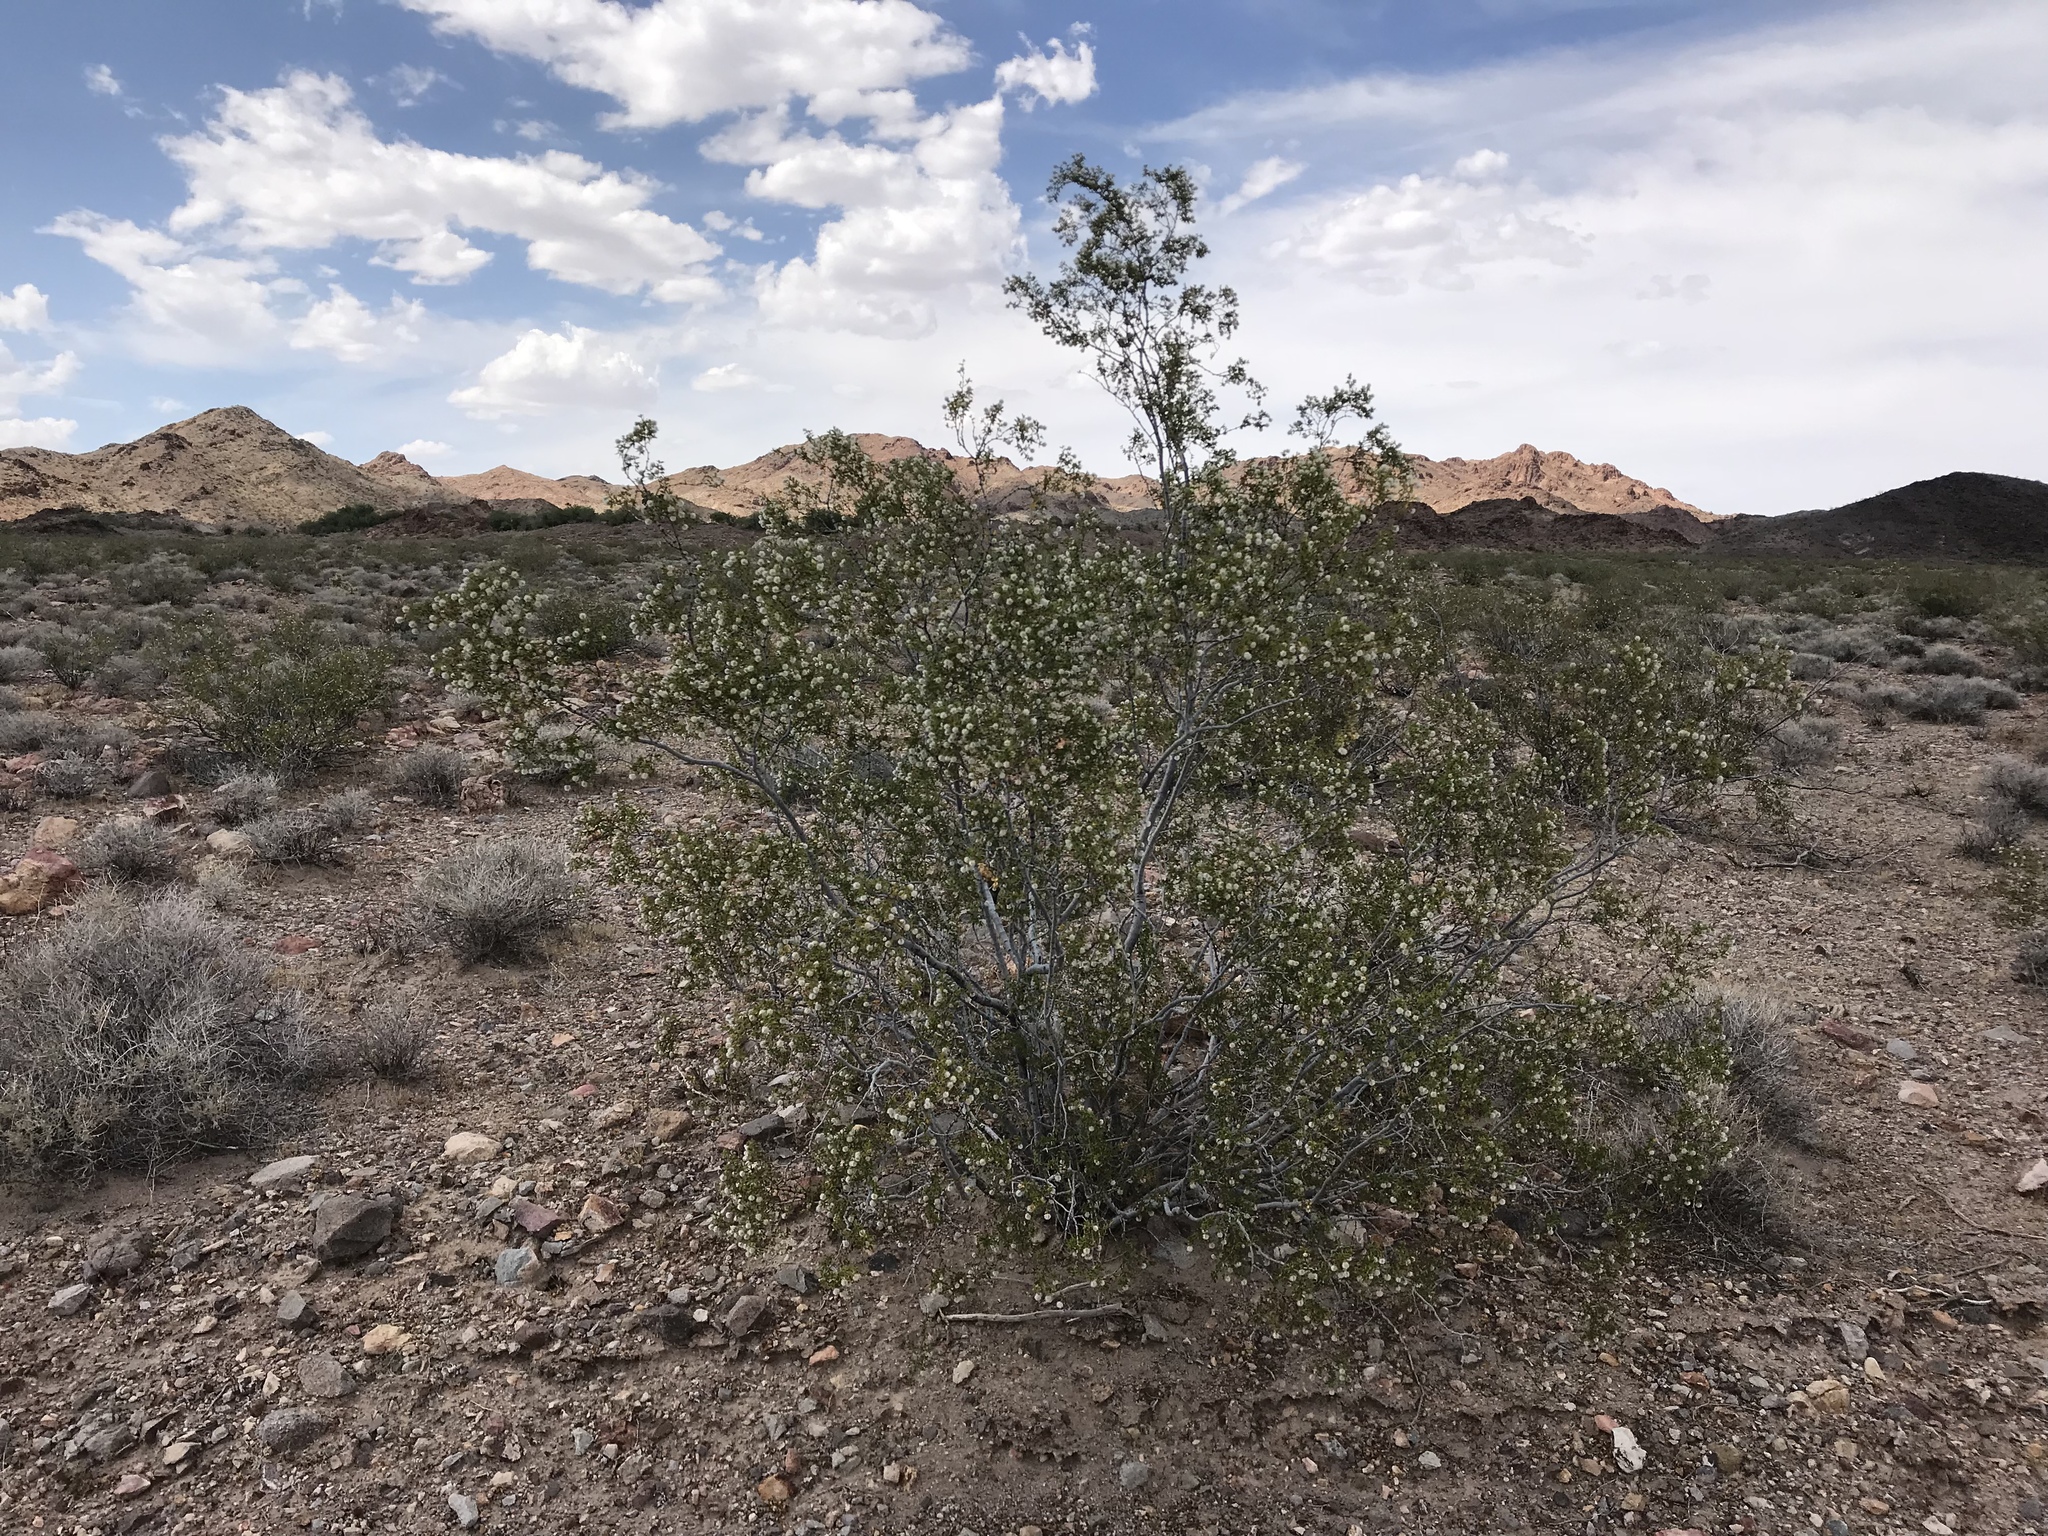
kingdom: Plantae
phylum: Tracheophyta
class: Magnoliopsida
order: Zygophyllales
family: Zygophyllaceae
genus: Larrea
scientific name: Larrea tridentata
